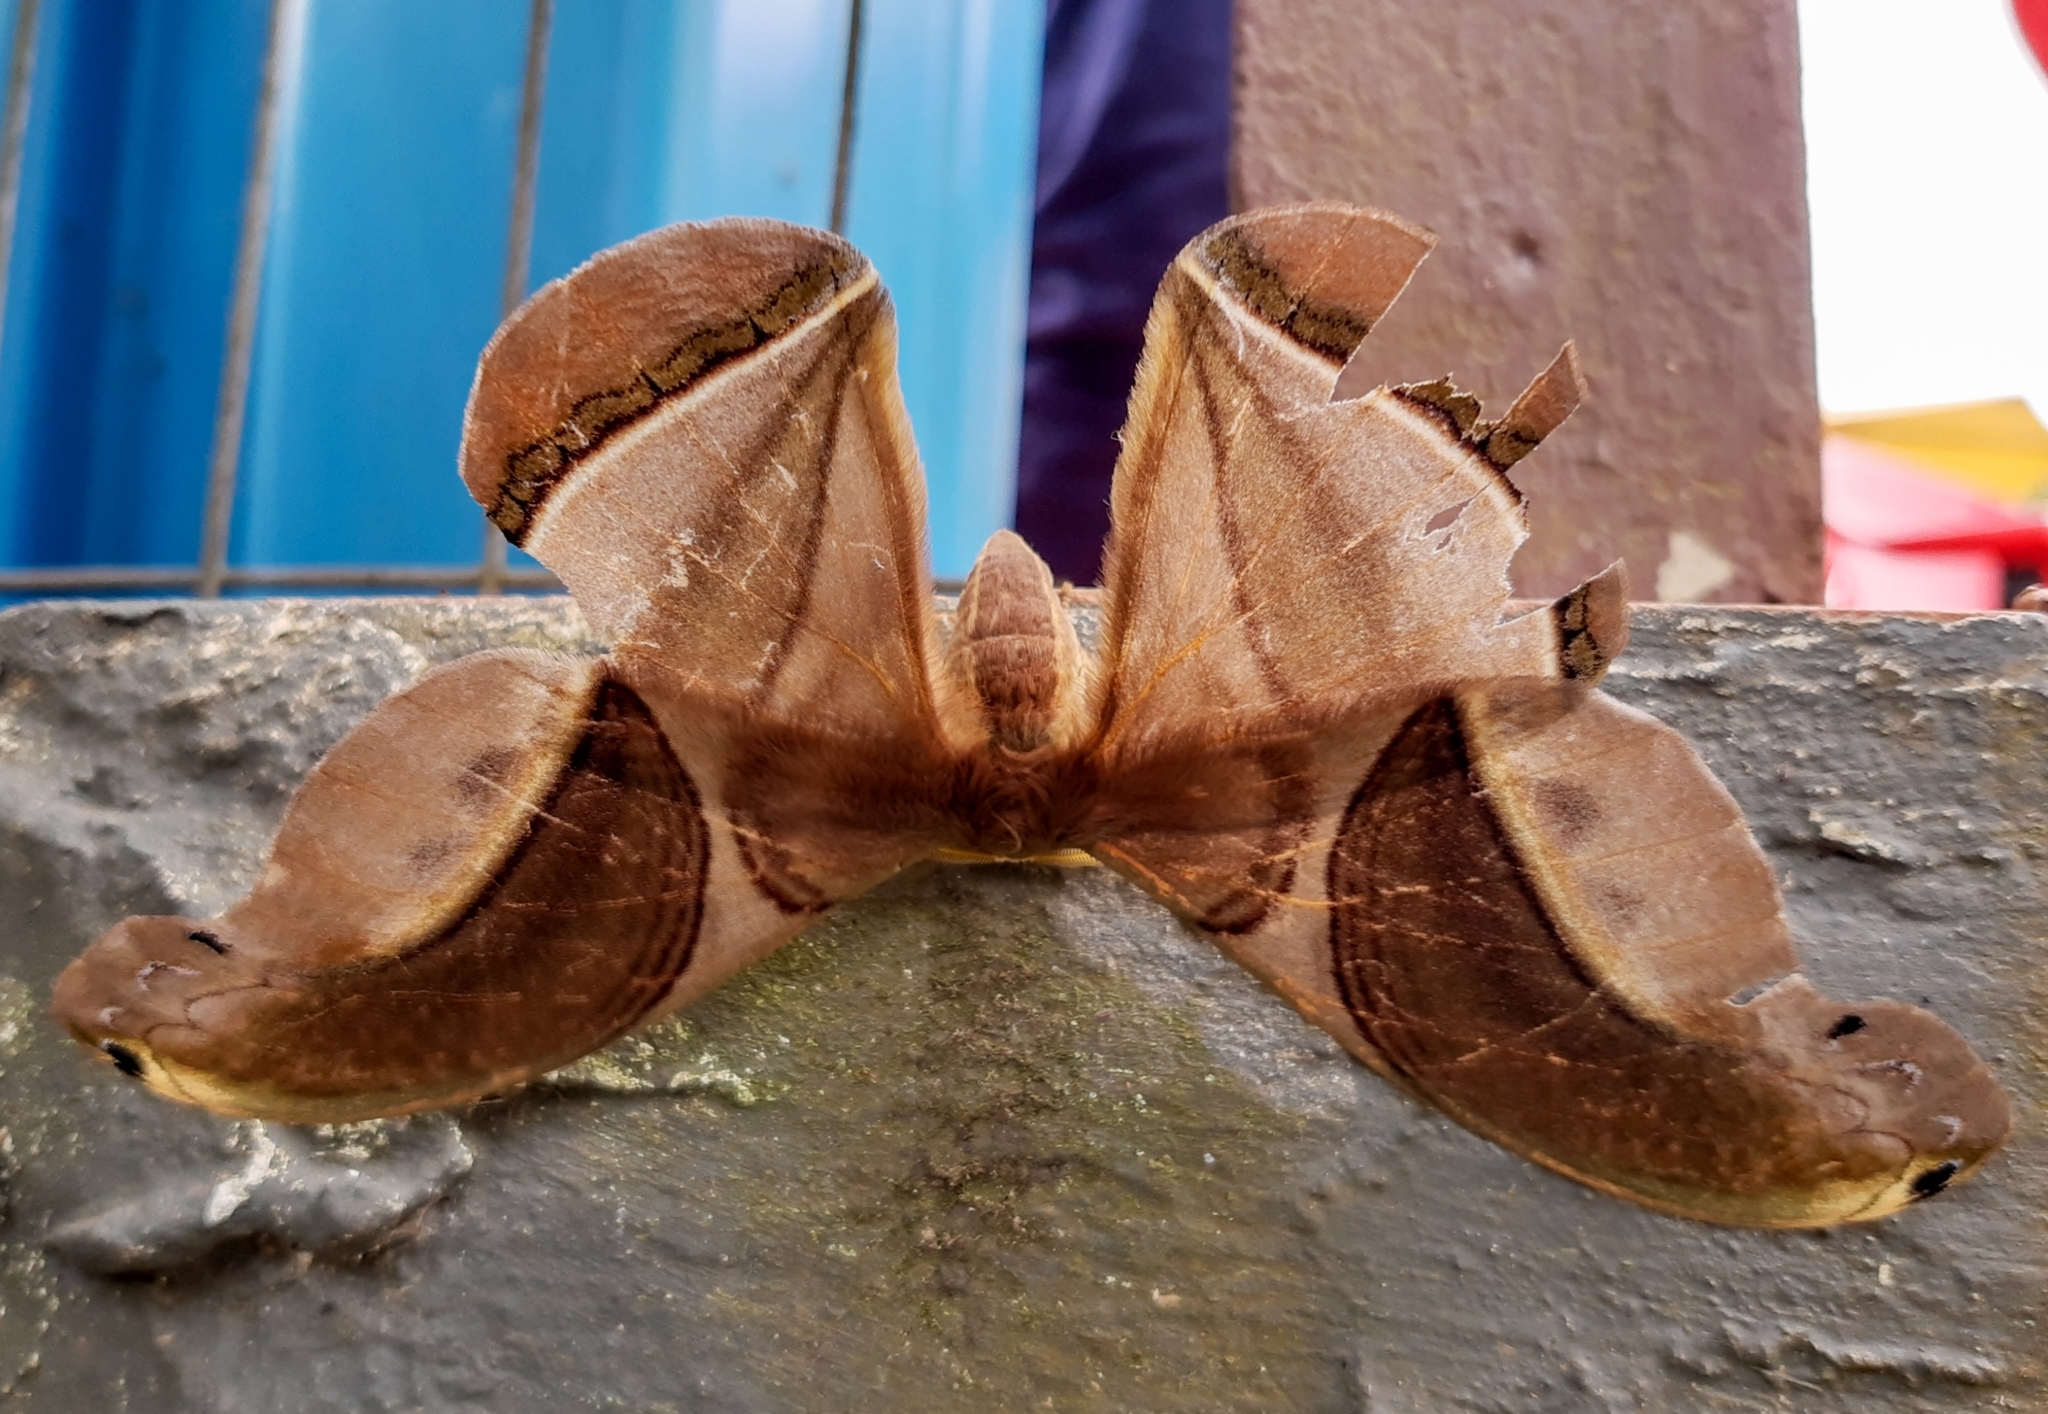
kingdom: Animalia
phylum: Arthropoda
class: Insecta
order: Lepidoptera
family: Saturniidae
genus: Rhescyntis
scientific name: Rhescyntis pseudomartii
